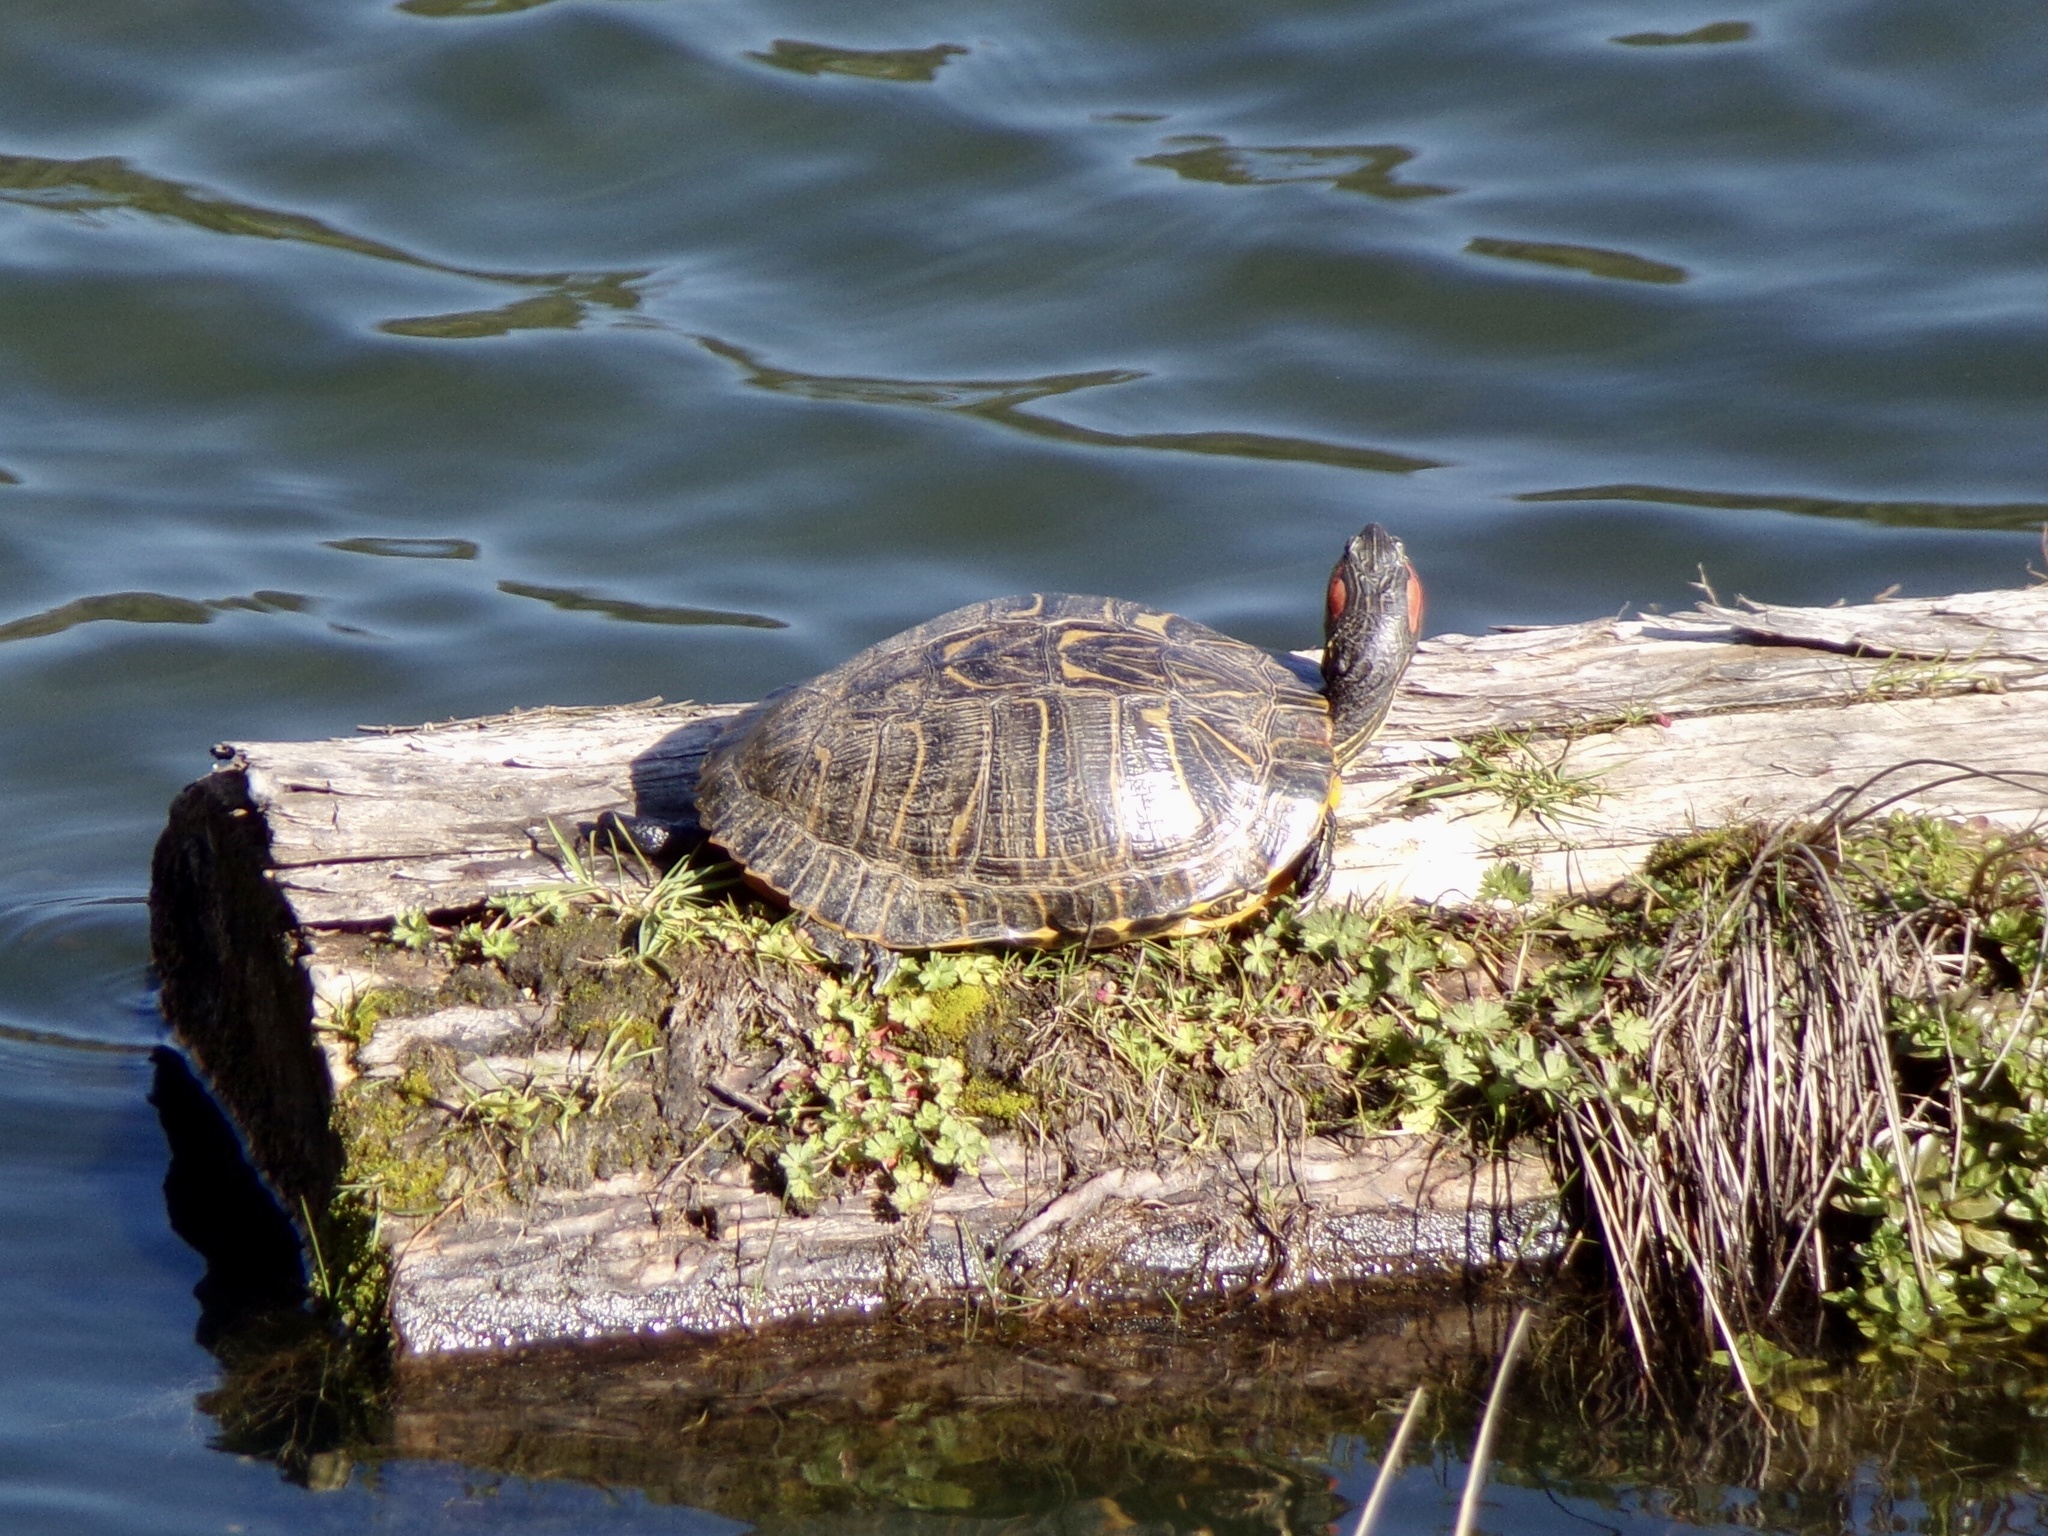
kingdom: Animalia
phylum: Chordata
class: Testudines
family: Emydidae
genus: Trachemys
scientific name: Trachemys scripta
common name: Slider
